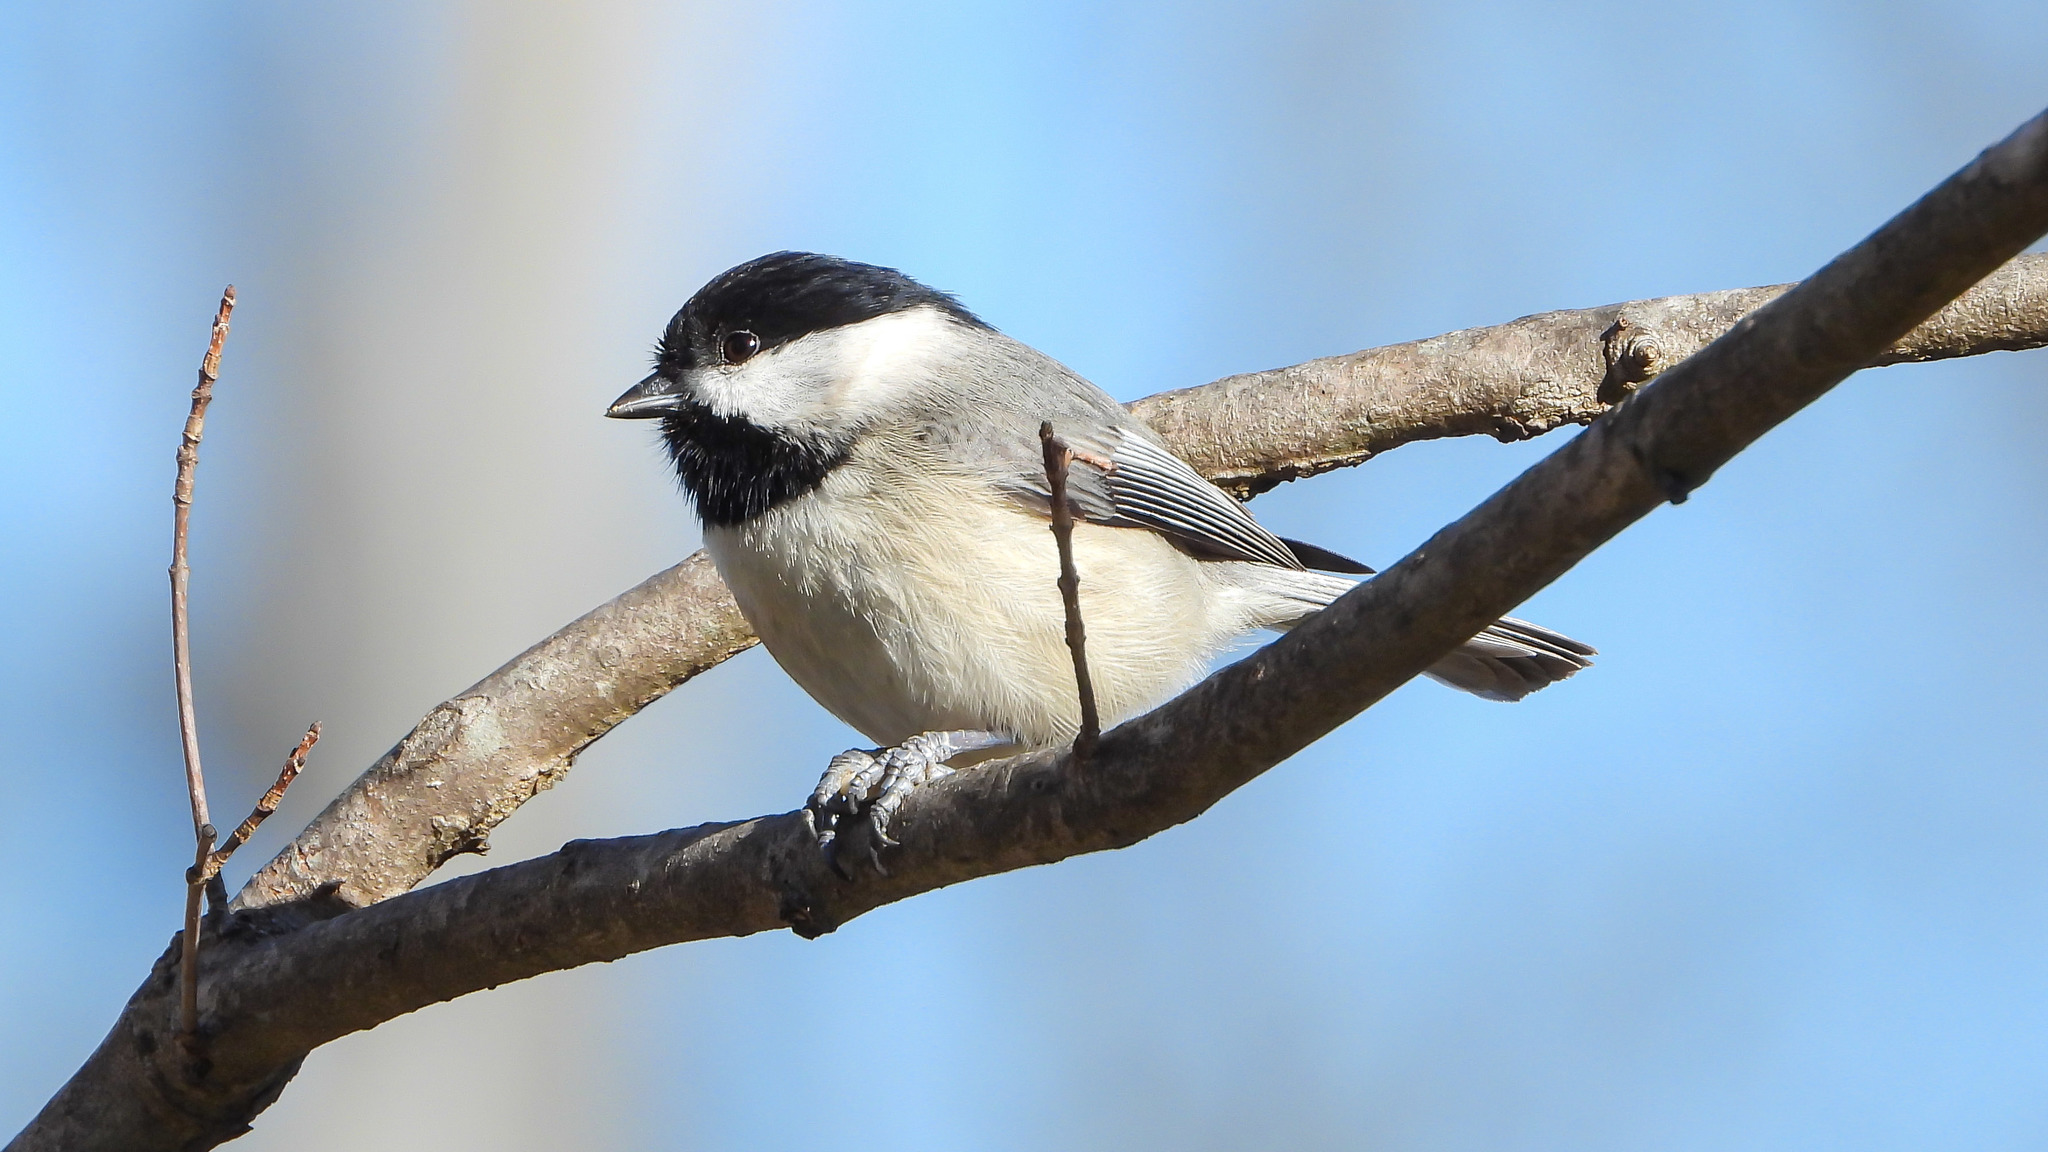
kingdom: Animalia
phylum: Chordata
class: Aves
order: Passeriformes
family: Paridae
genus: Poecile
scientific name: Poecile carolinensis
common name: Carolina chickadee
